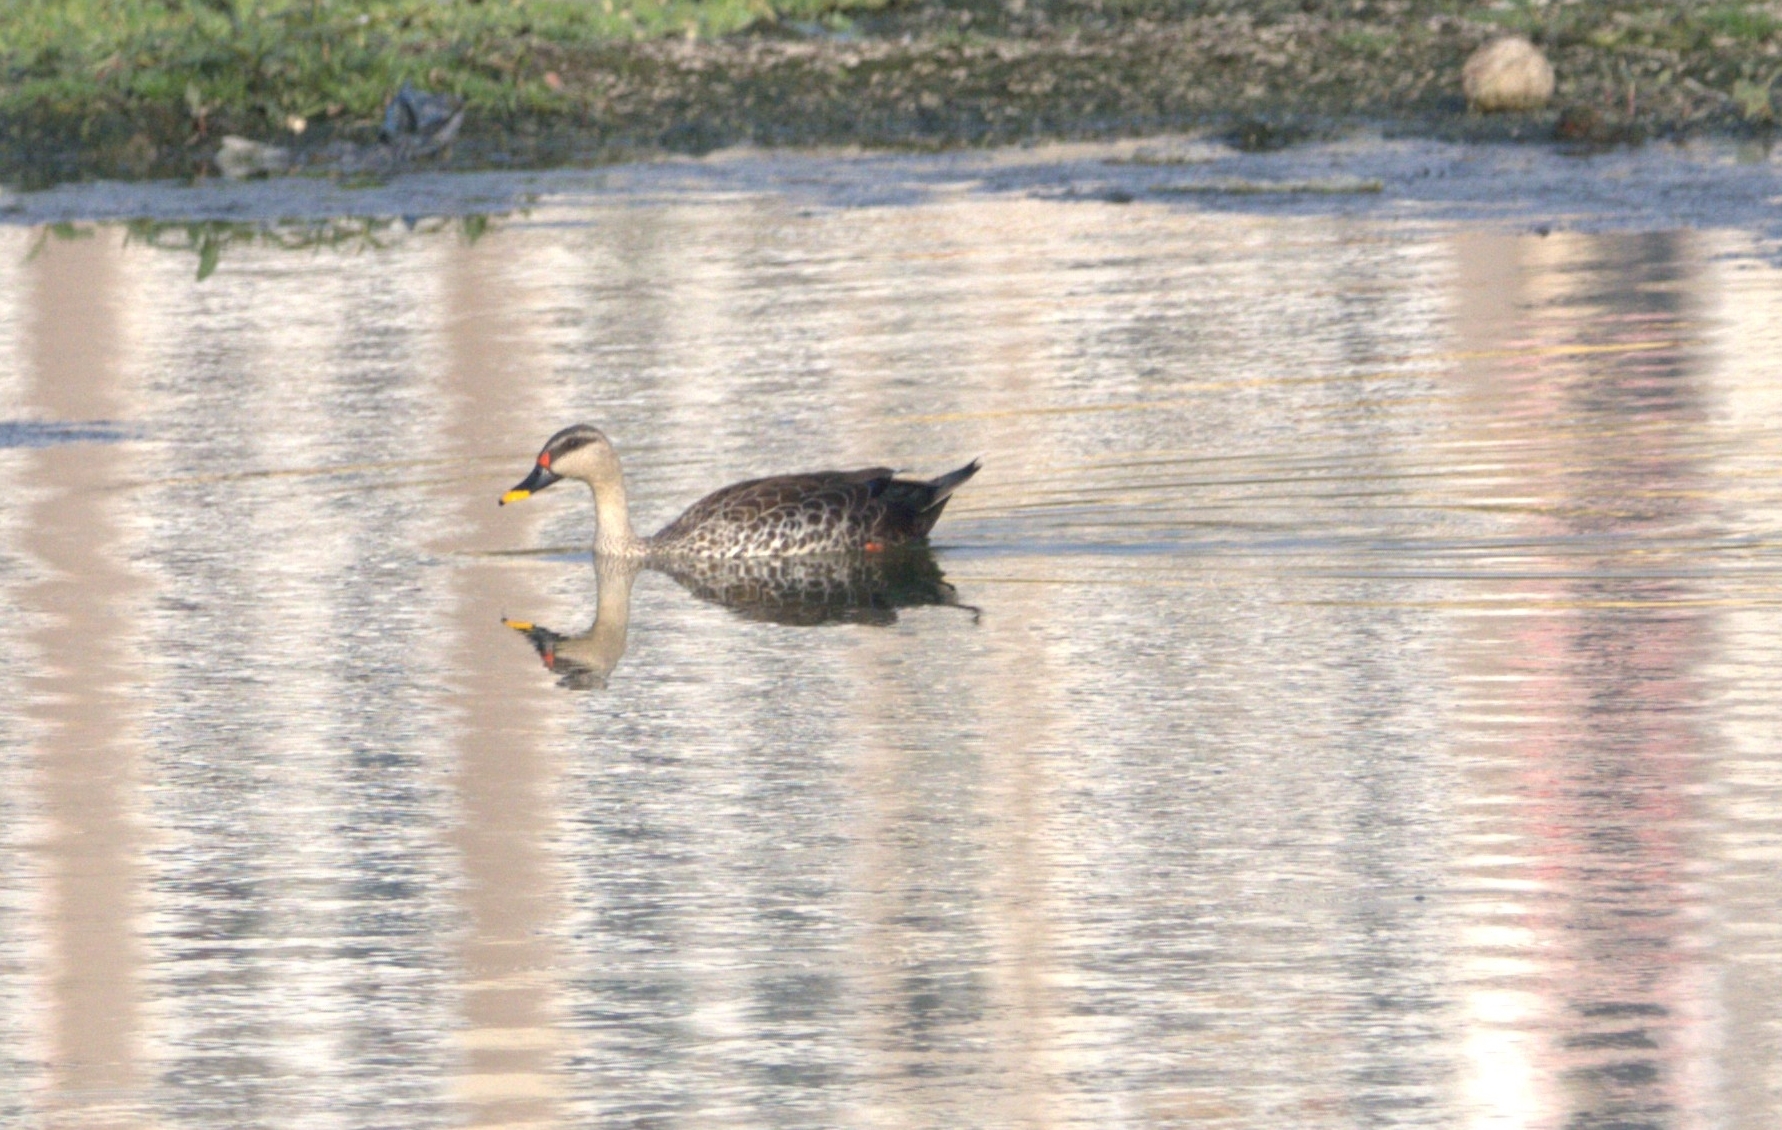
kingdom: Animalia
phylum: Chordata
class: Aves
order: Anseriformes
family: Anatidae
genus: Anas
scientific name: Anas poecilorhyncha
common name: Indian spot-billed duck
